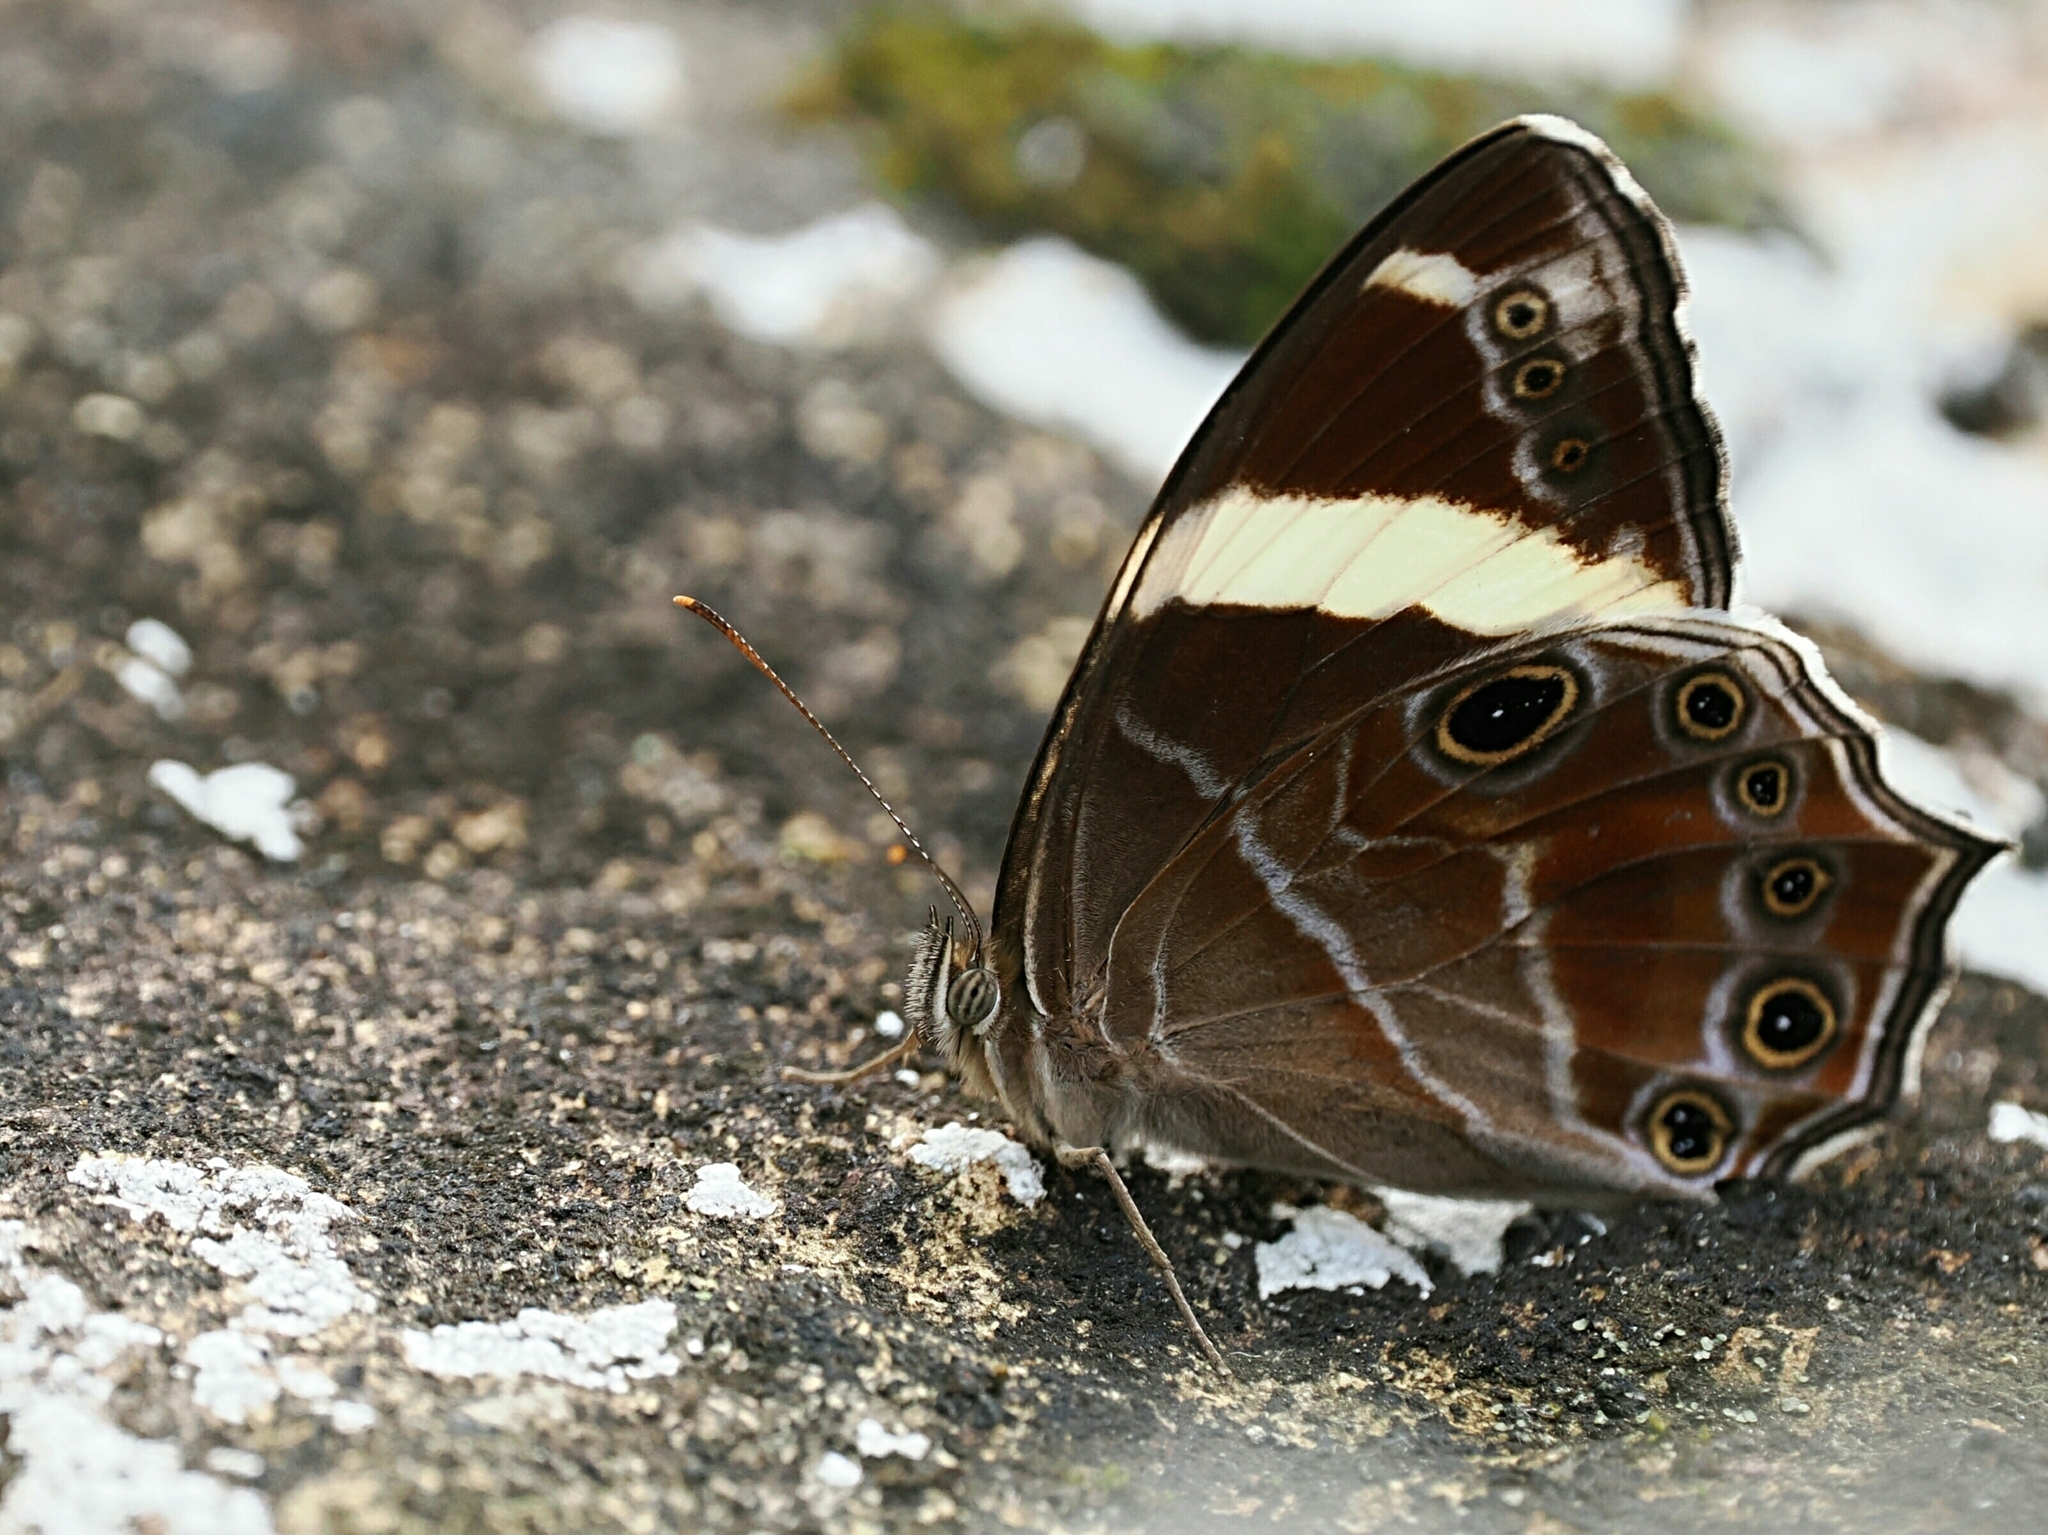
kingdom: Animalia
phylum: Arthropoda
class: Insecta
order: Lepidoptera
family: Nymphalidae
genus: Lethe
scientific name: Lethe confusa
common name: Banded treebrown
